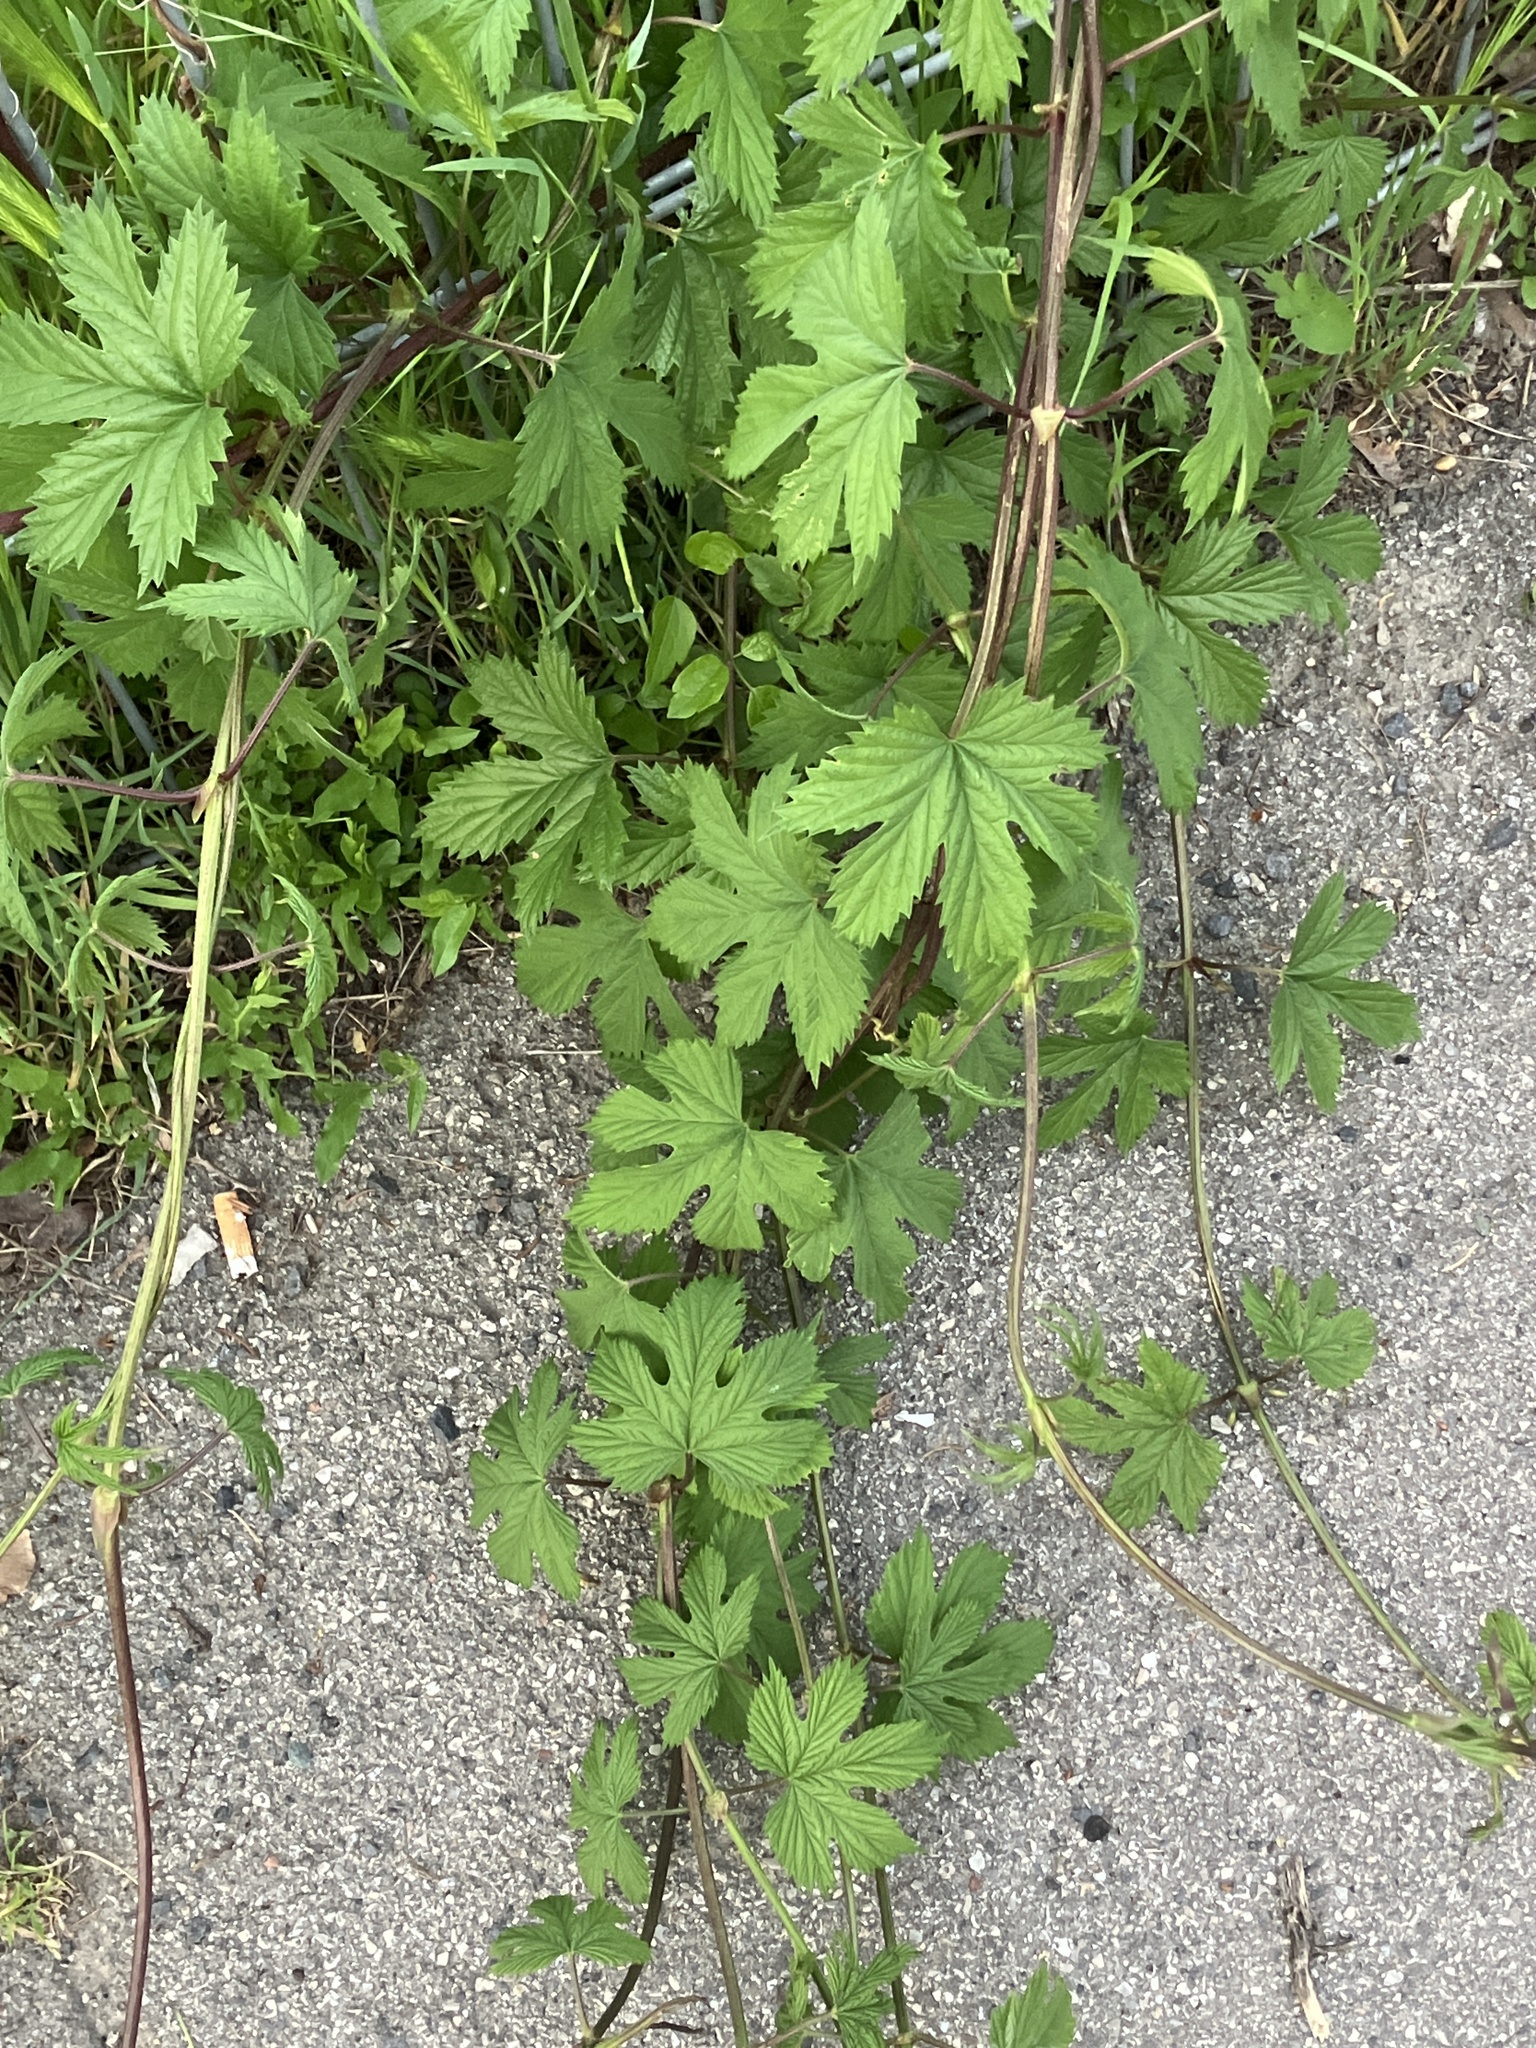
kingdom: Plantae
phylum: Tracheophyta
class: Magnoliopsida
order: Rosales
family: Cannabaceae
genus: Humulus
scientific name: Humulus lupulus
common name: Hop
